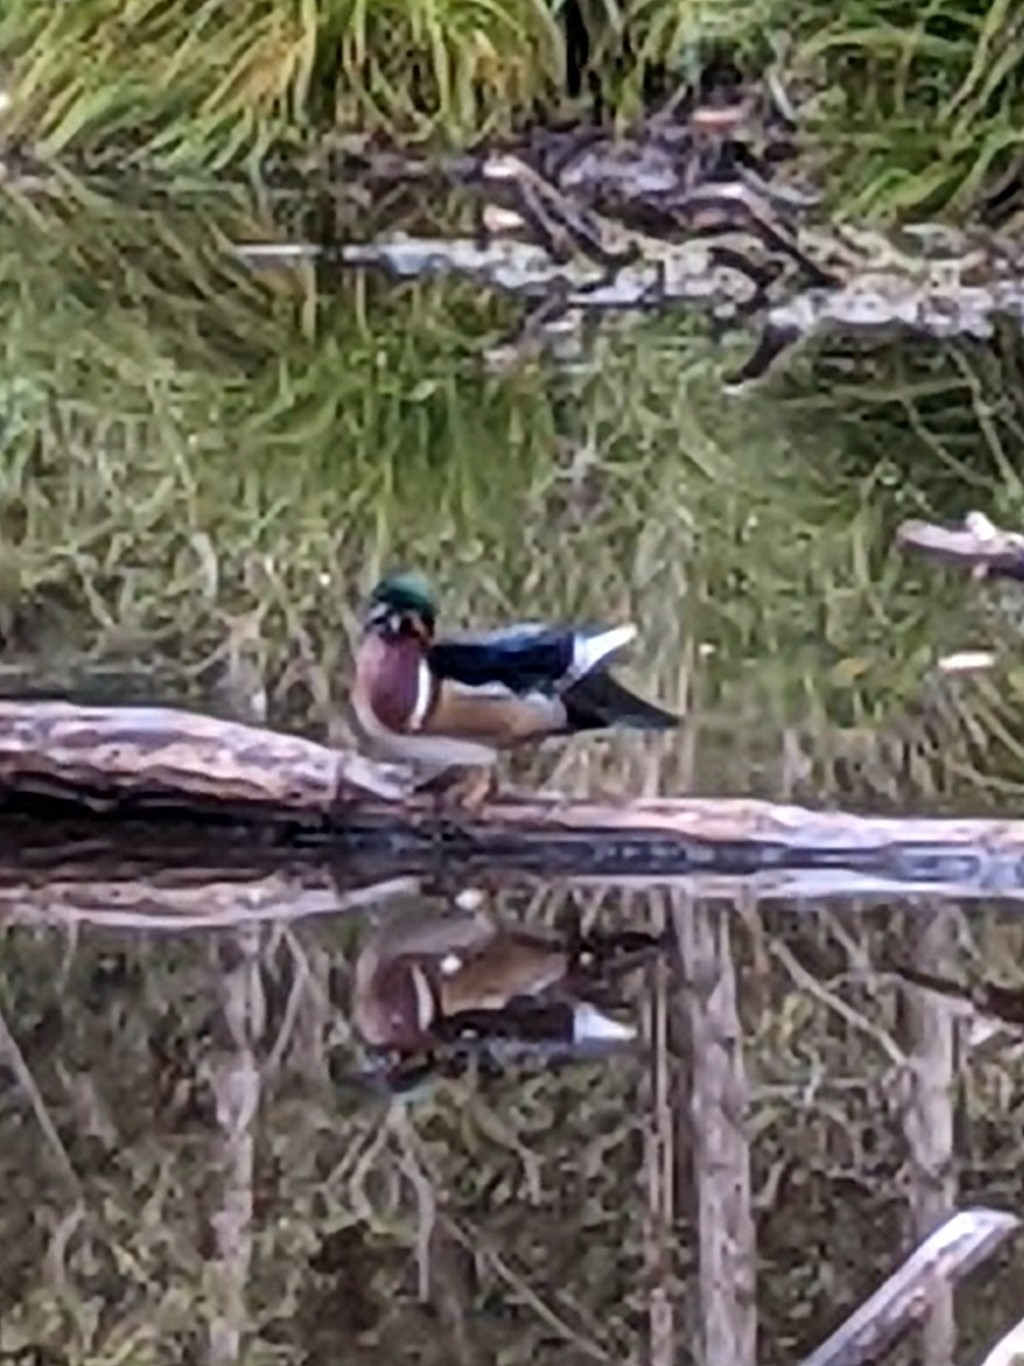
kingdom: Animalia
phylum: Chordata
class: Aves
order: Anseriformes
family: Anatidae
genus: Aix
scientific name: Aix sponsa
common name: Wood duck
